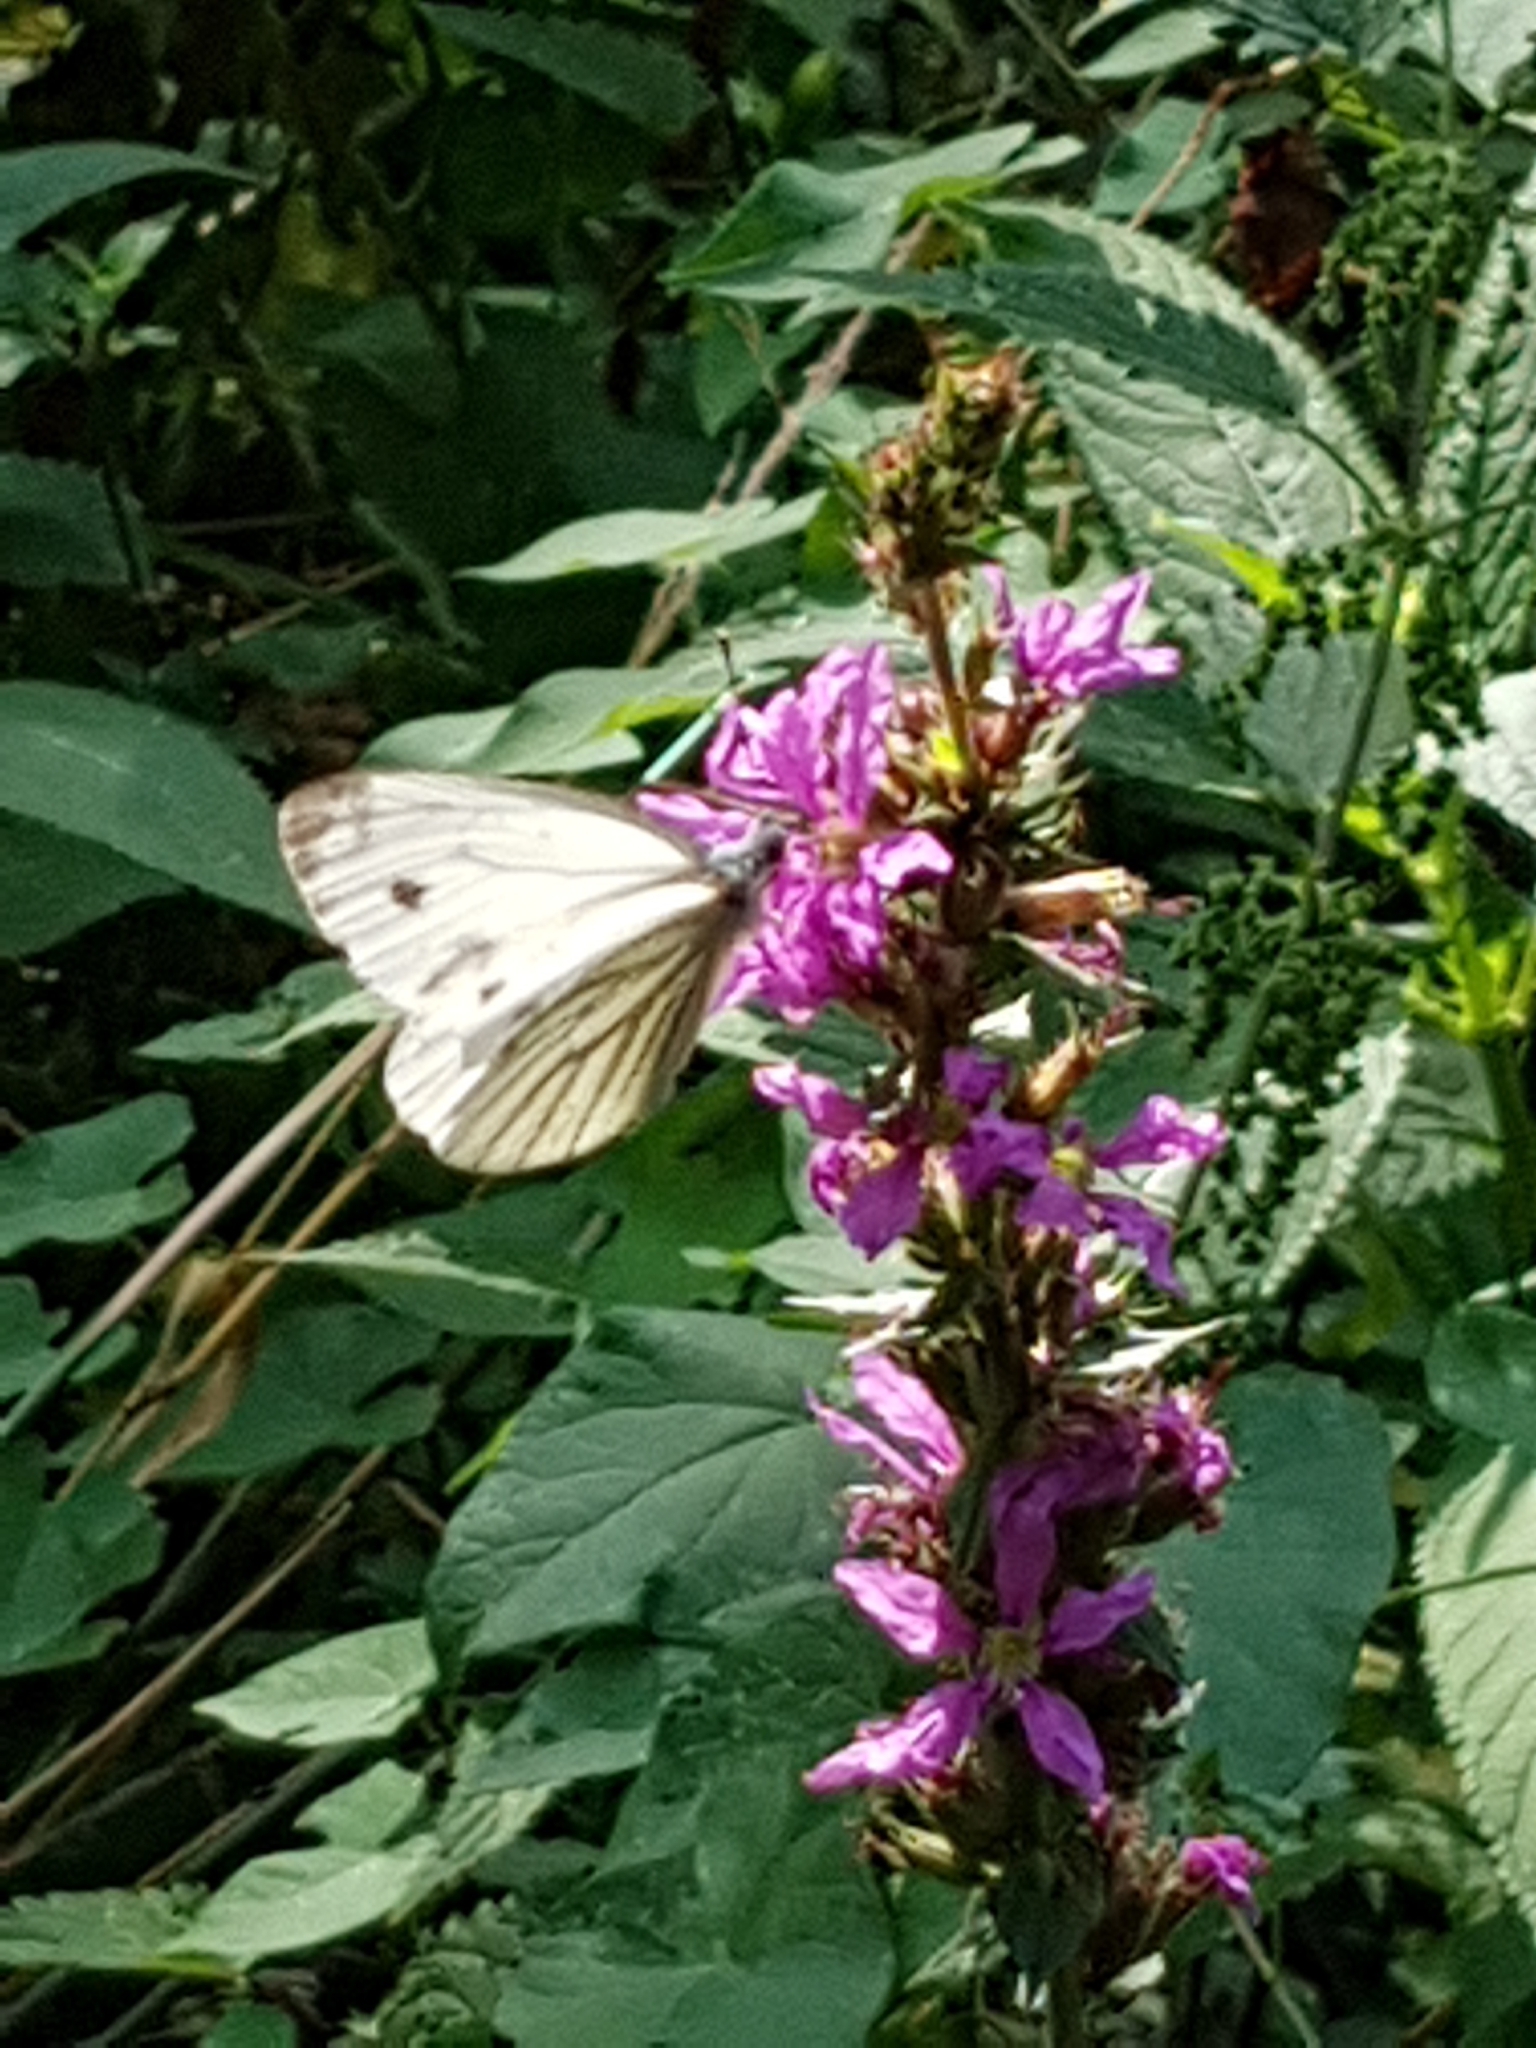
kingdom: Animalia
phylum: Arthropoda
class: Insecta
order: Lepidoptera
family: Pieridae
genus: Pieris
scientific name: Pieris napi
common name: Green-veined white
